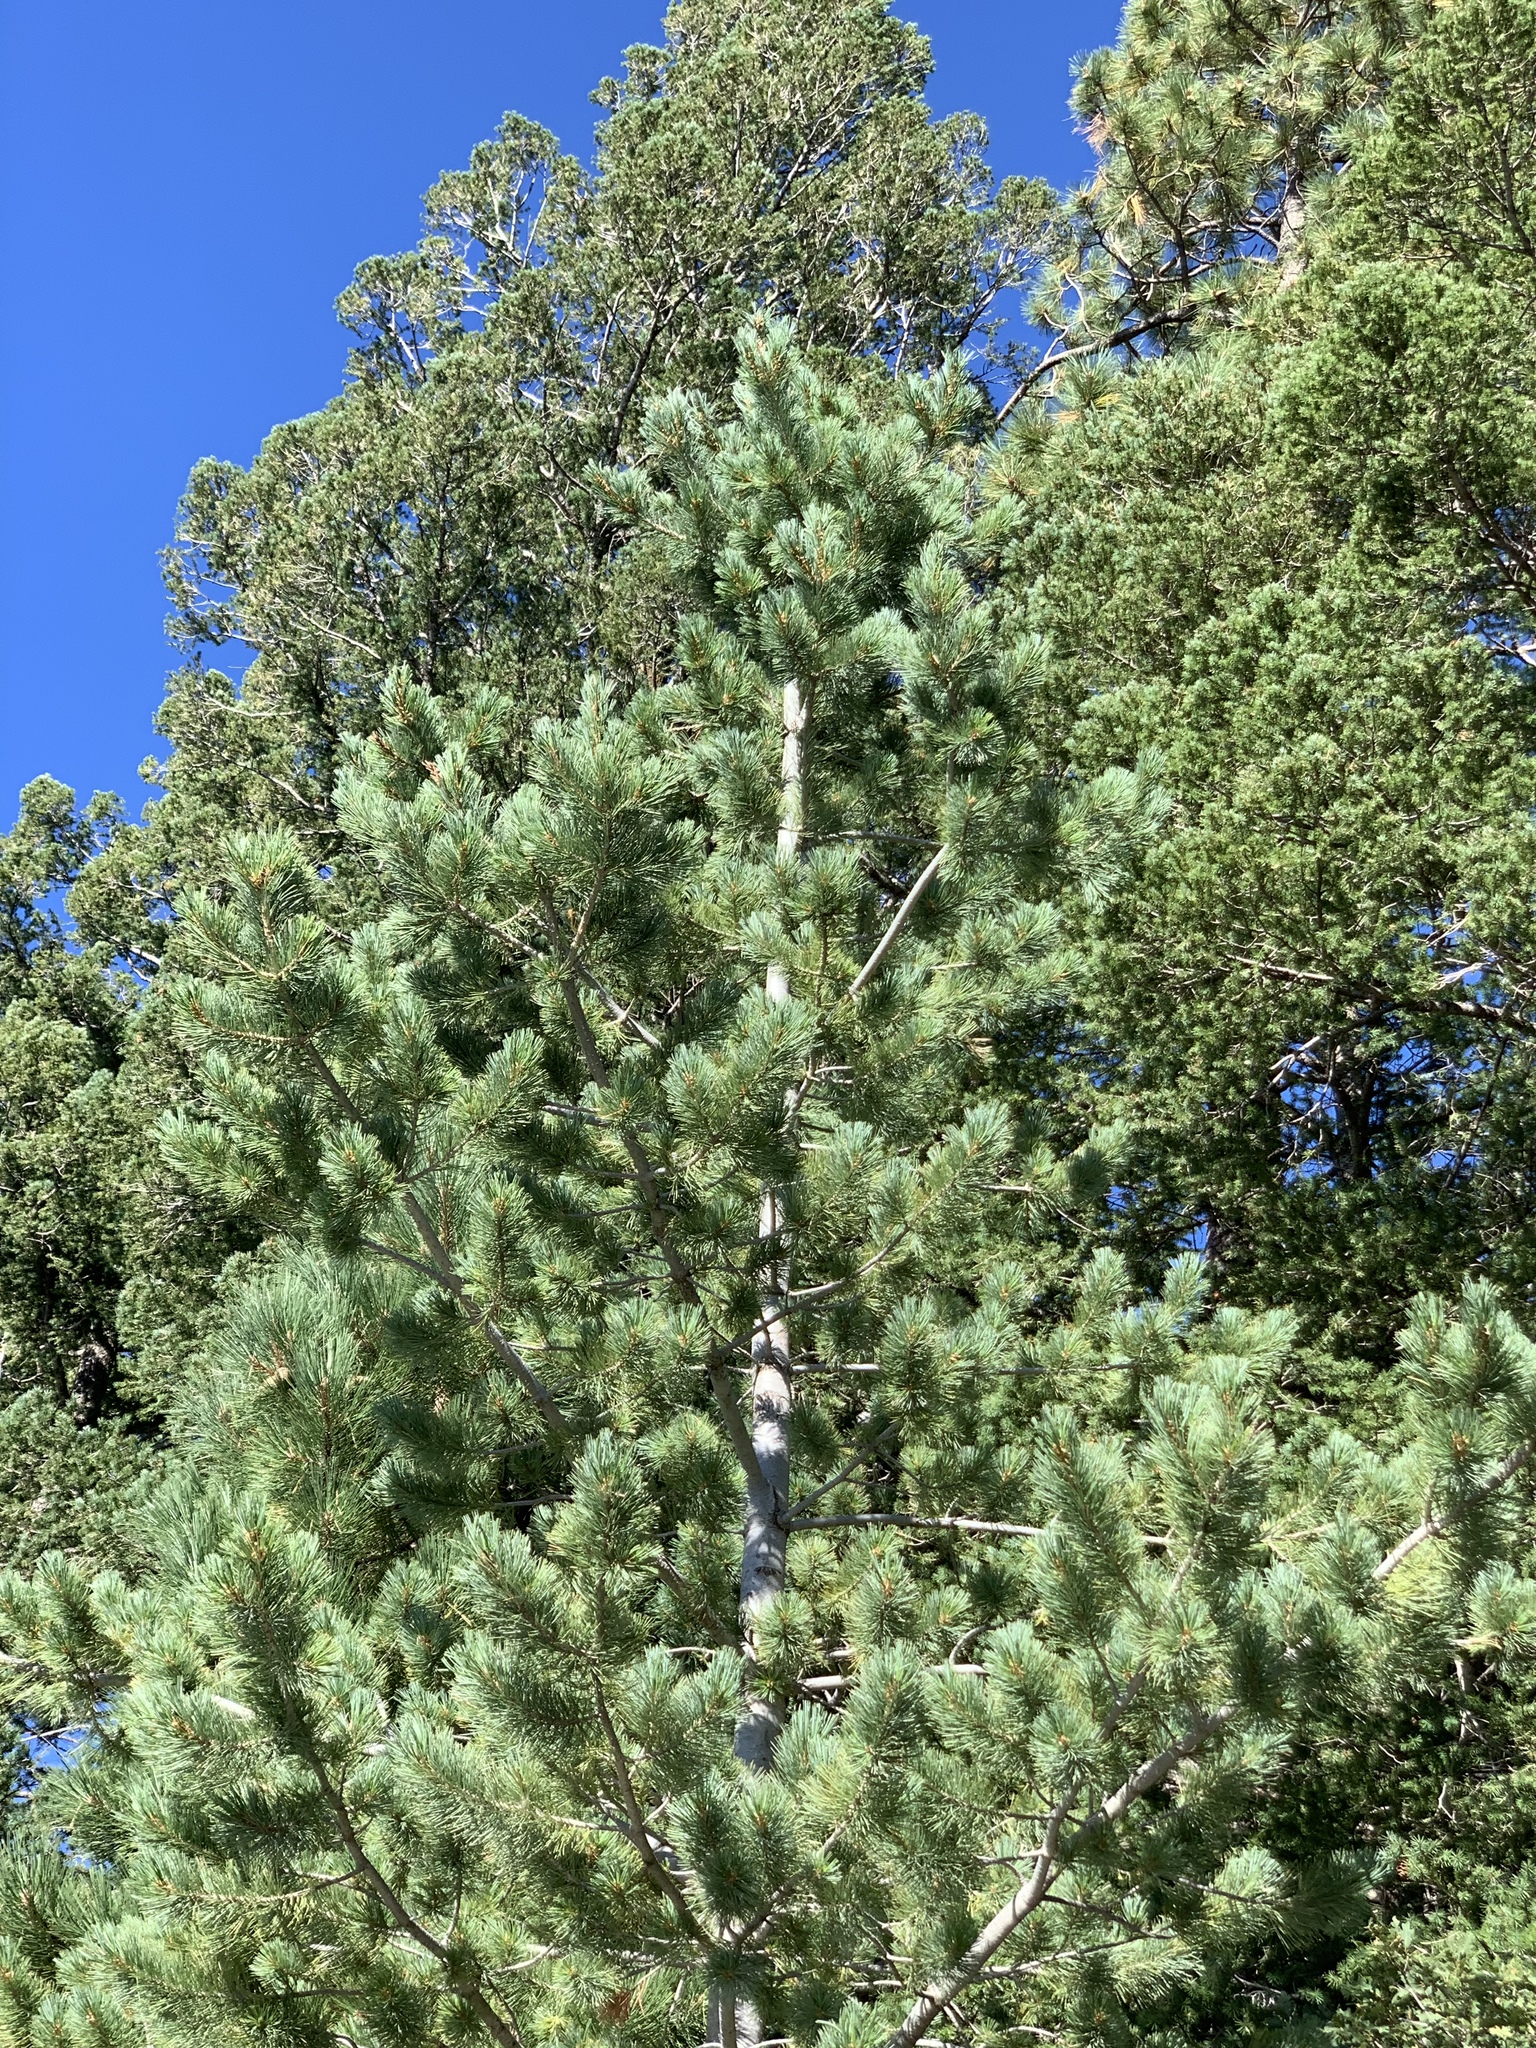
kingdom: Plantae
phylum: Tracheophyta
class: Pinopsida
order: Pinales
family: Pinaceae
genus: Pinus
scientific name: Pinus strobiformis
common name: Southwestern white pine
